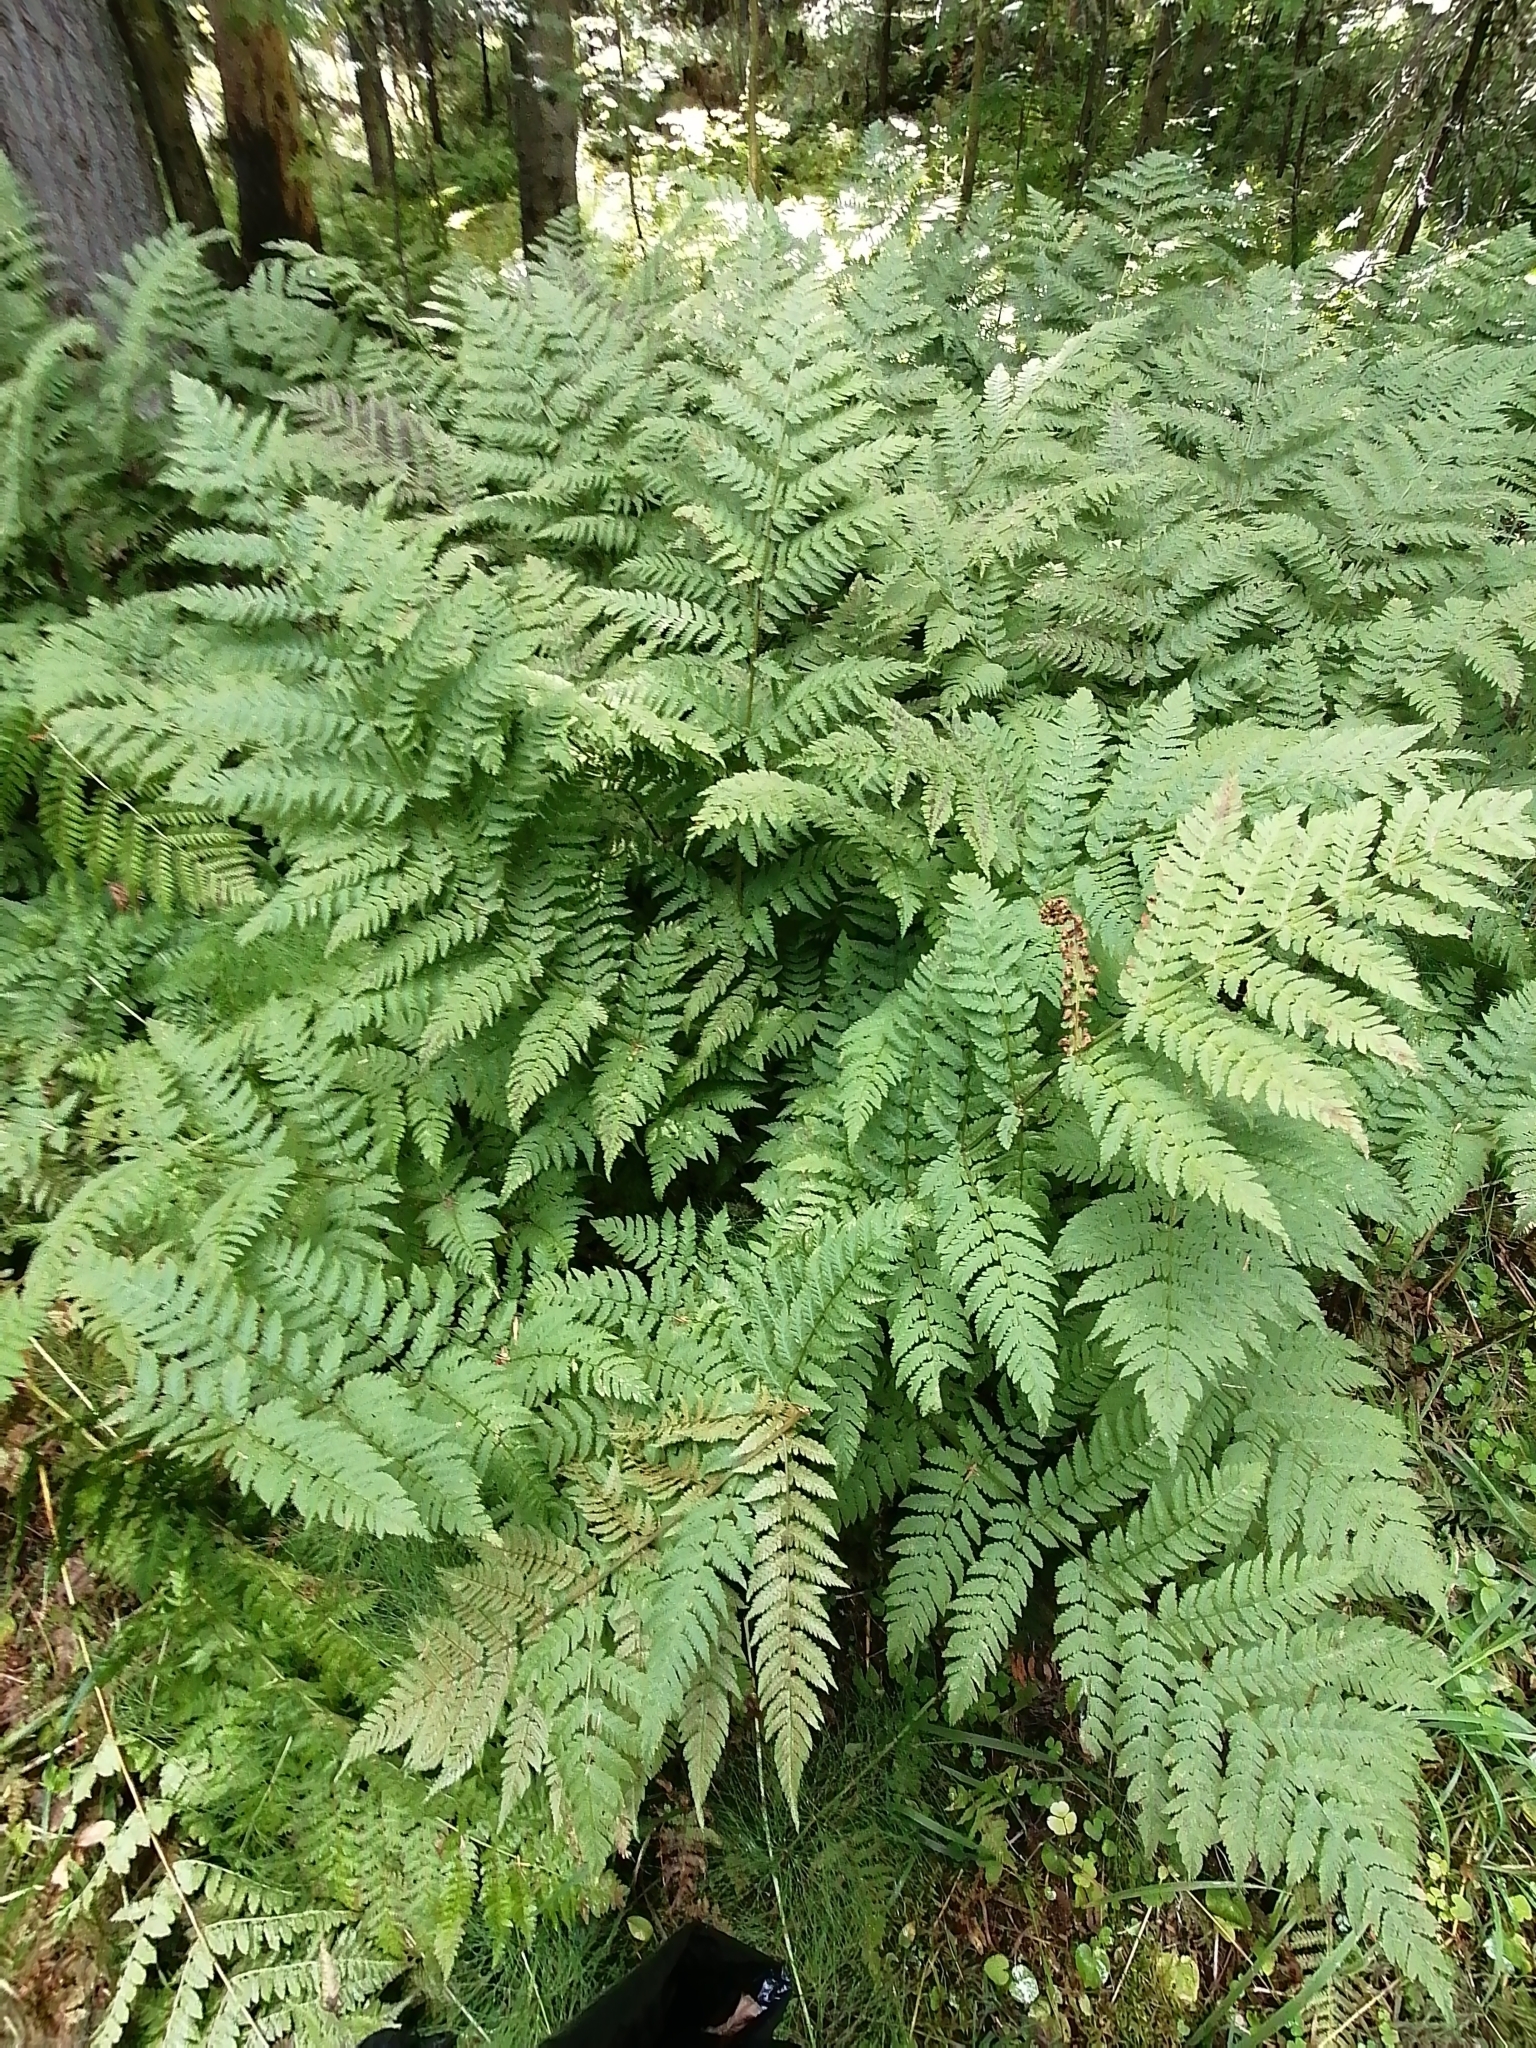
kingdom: Plantae
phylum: Tracheophyta
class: Polypodiopsida
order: Polypodiales
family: Dryopteridaceae
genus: Dryopteris
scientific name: Dryopteris expansa
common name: Northern buckler fern
